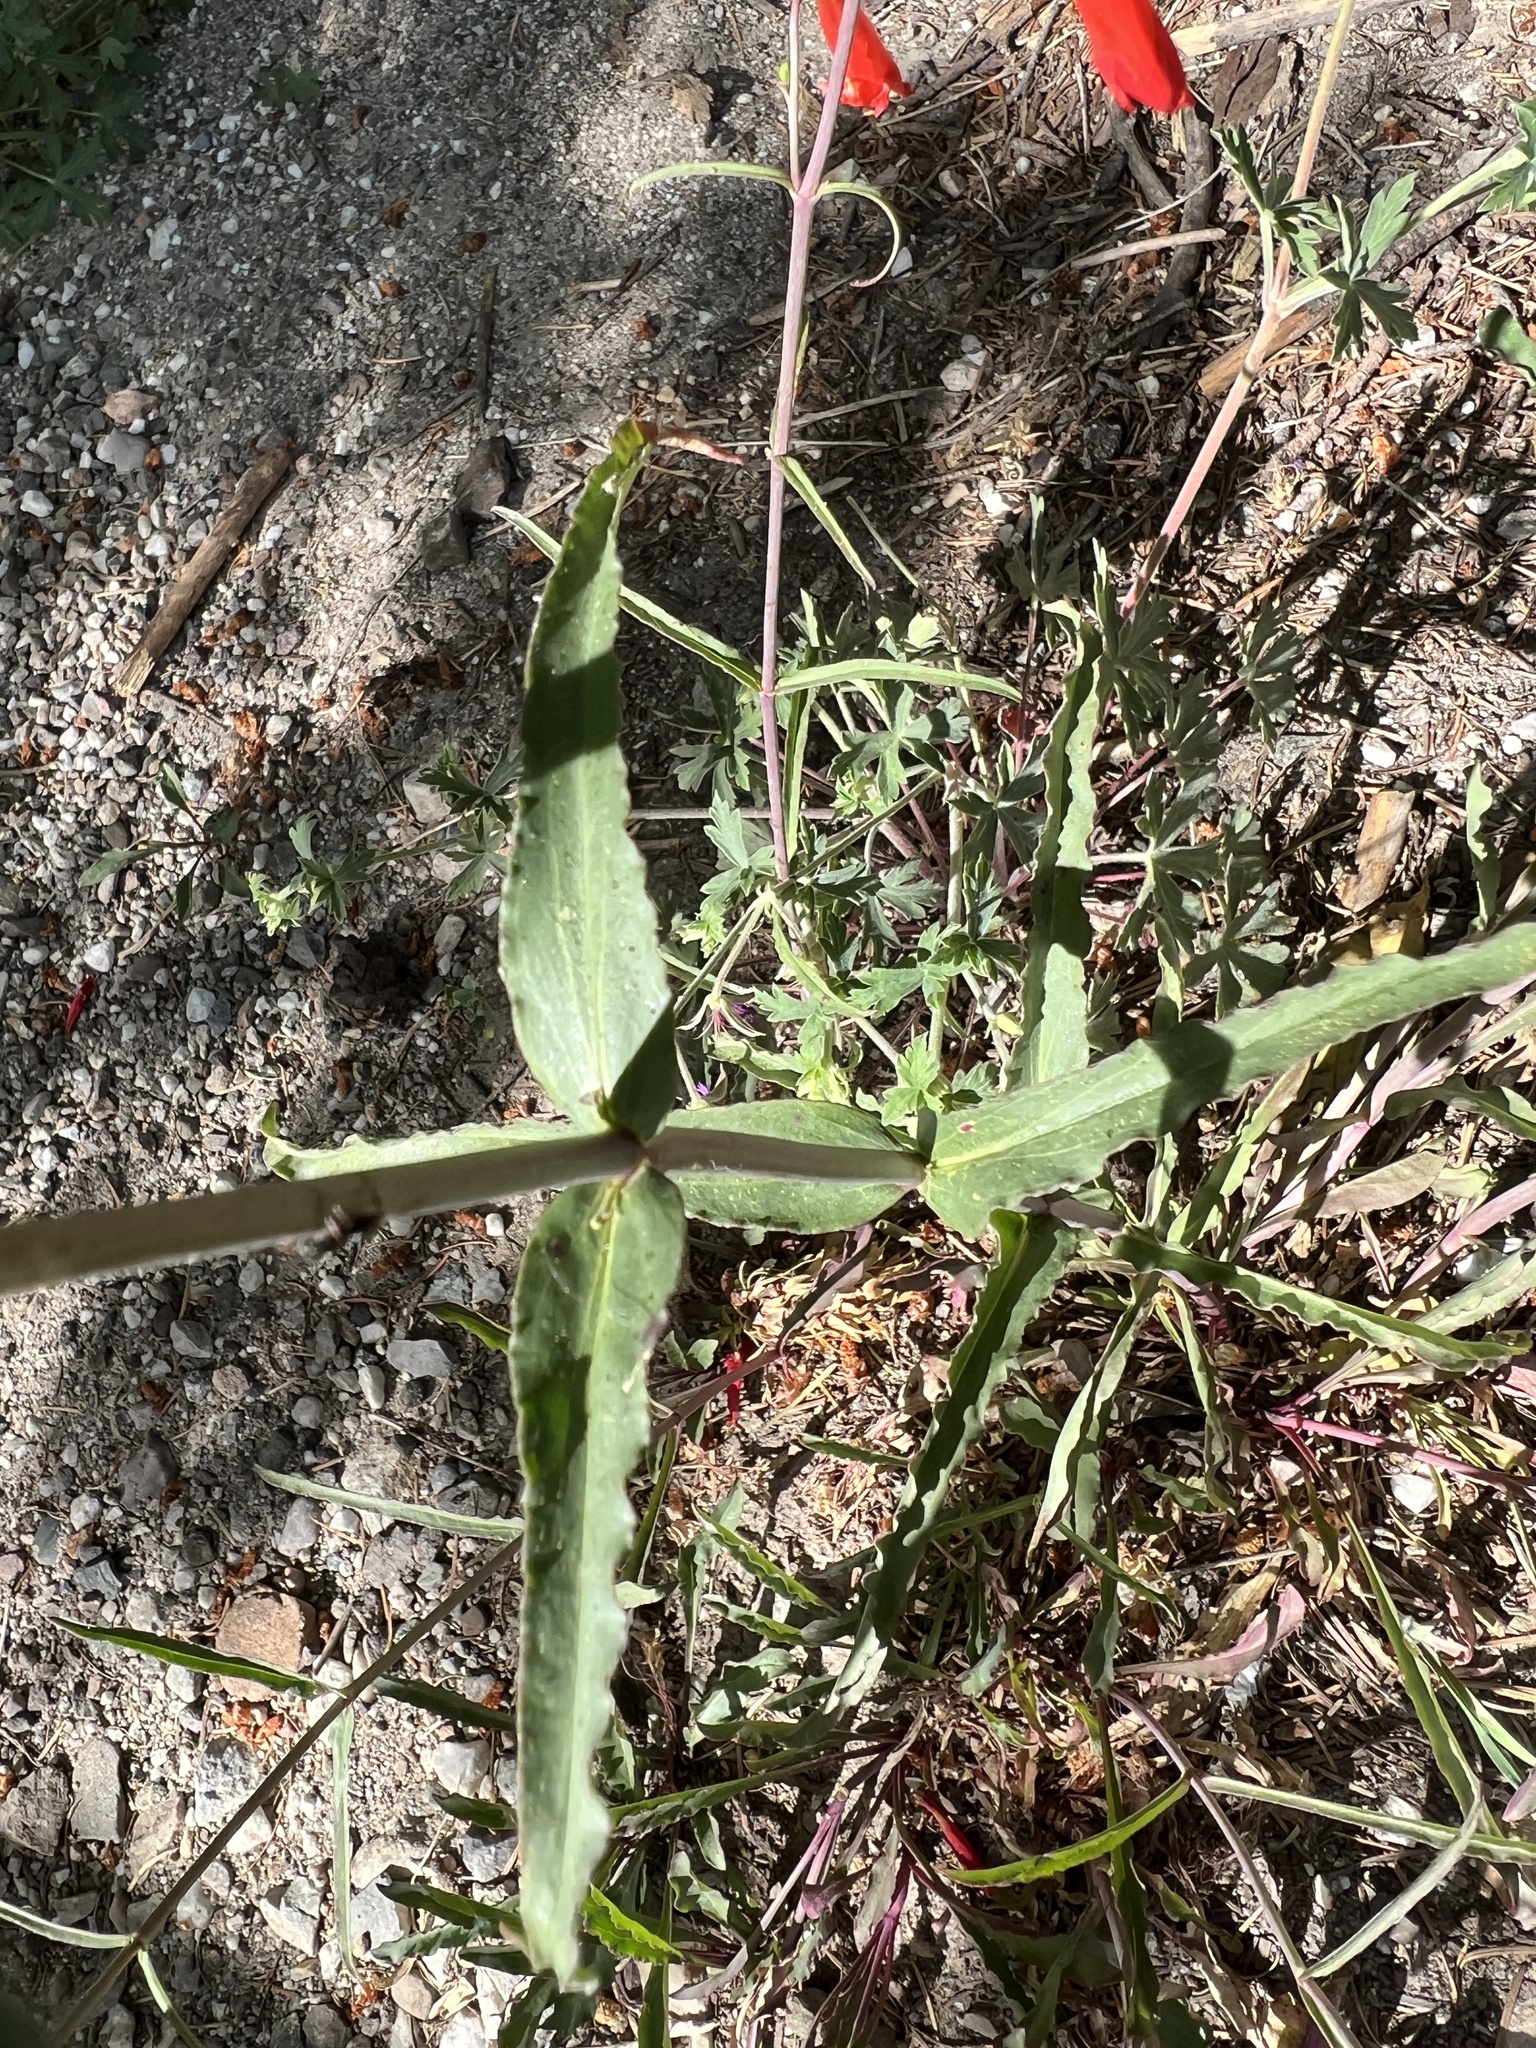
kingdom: Plantae
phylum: Tracheophyta
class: Magnoliopsida
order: Lamiales
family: Plantaginaceae
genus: Penstemon
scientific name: Penstemon barbatus
